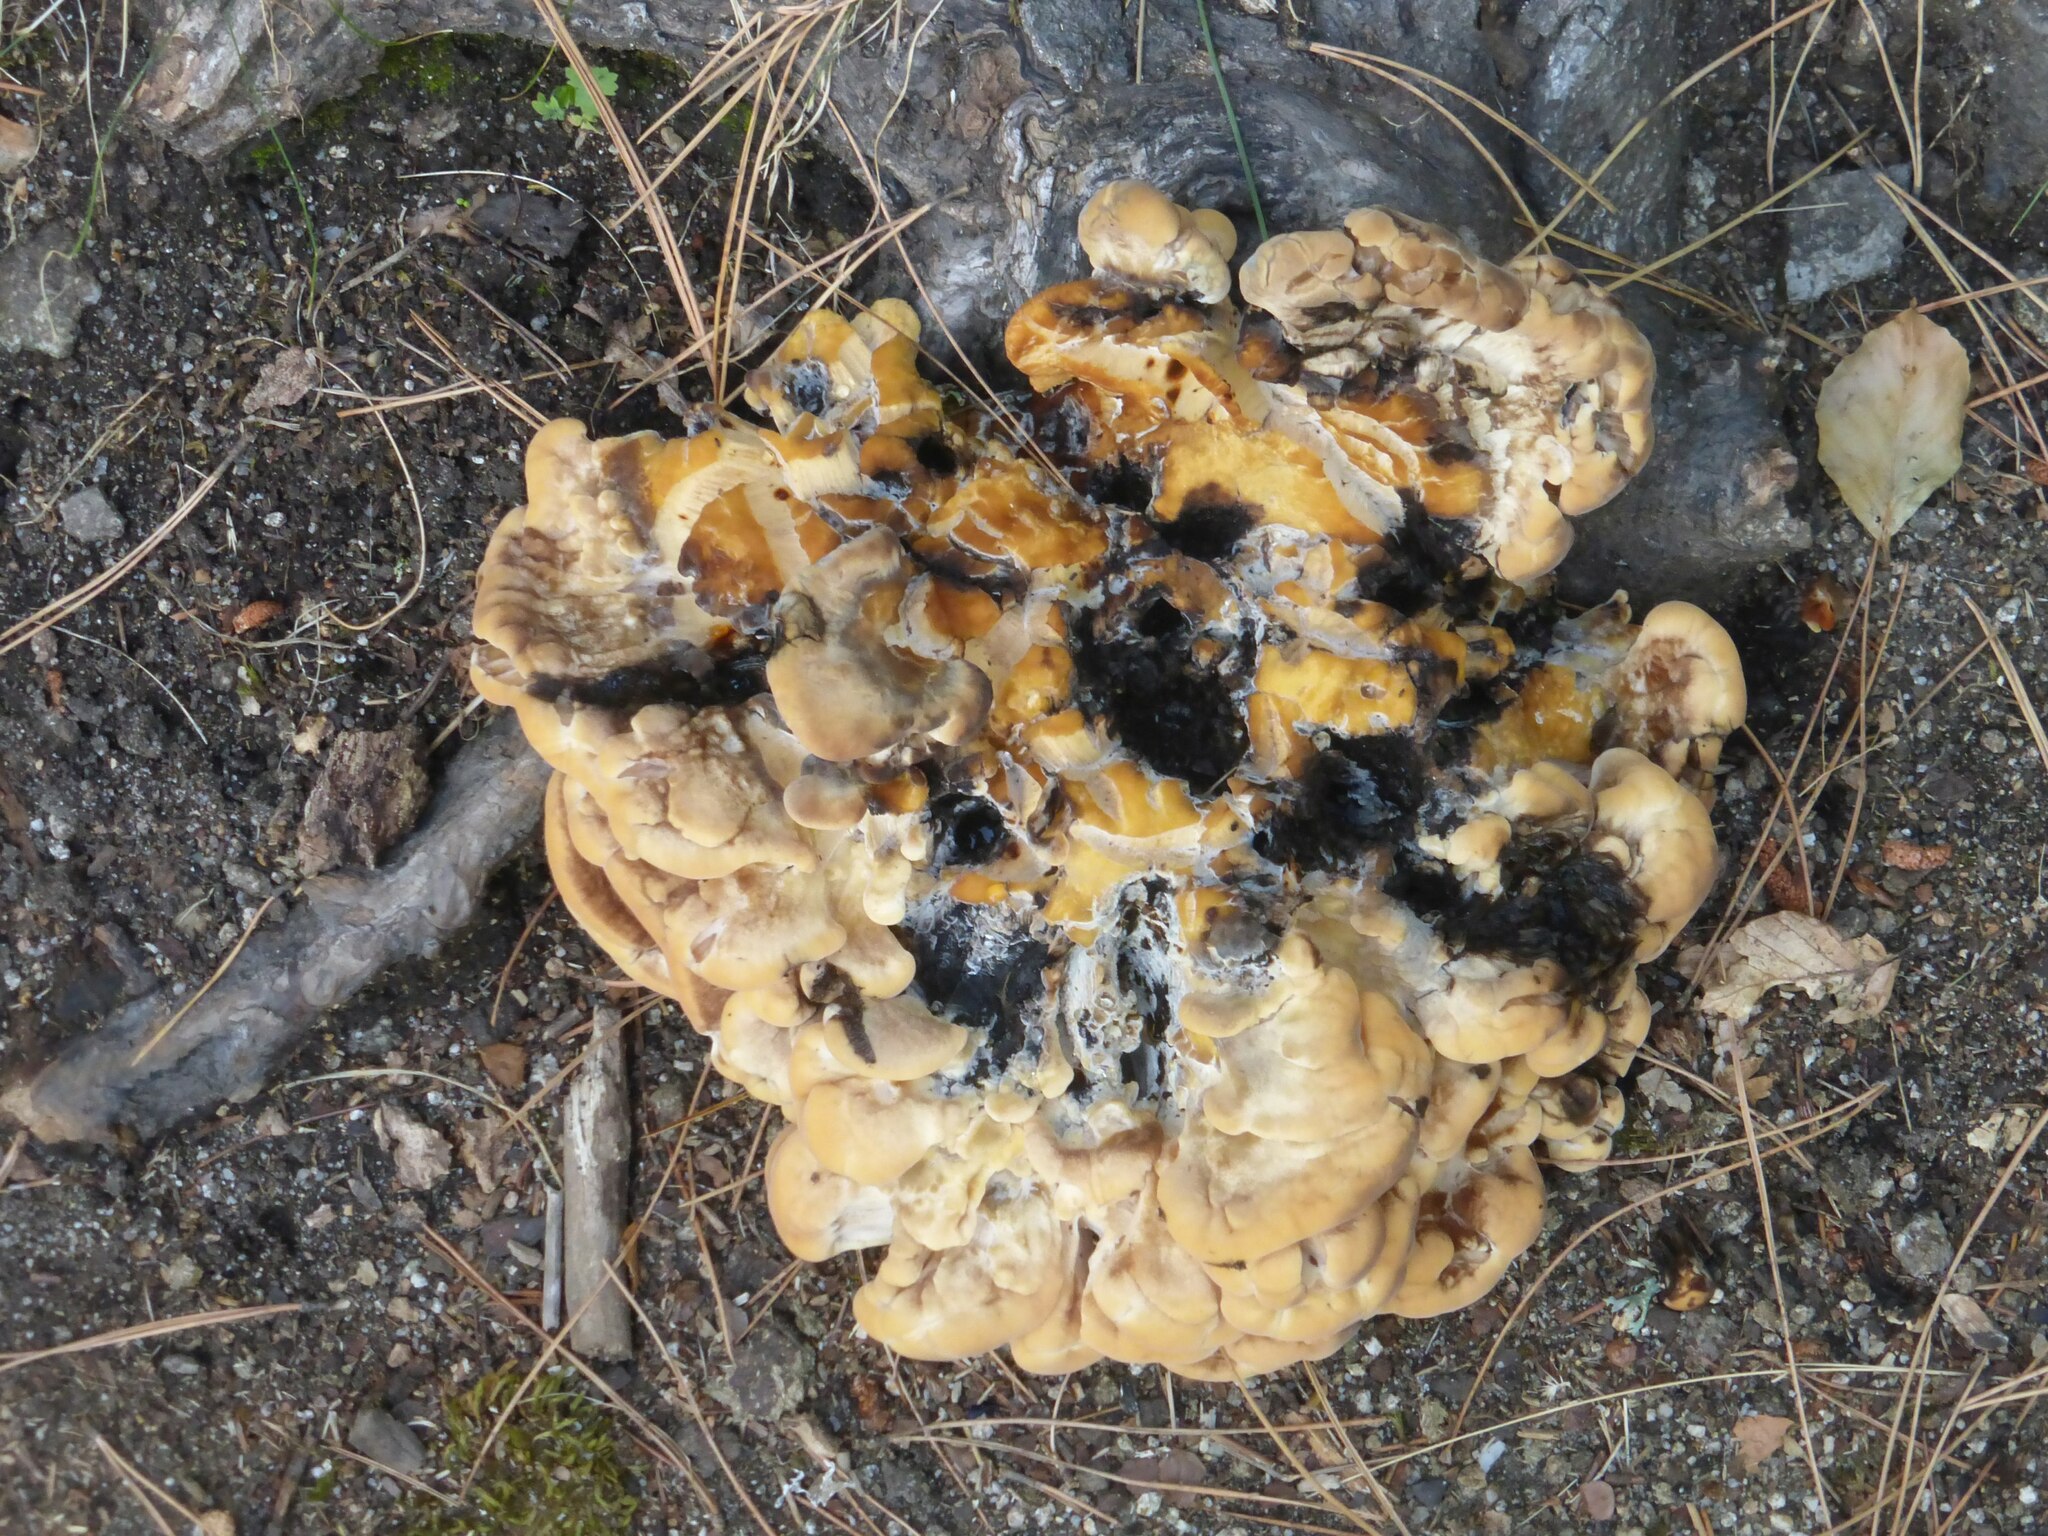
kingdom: Fungi
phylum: Basidiomycota
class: Agaricomycetes
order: Polyporales
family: Meripilaceae
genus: Meripilus
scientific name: Meripilus giganteus
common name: Giant polypore
